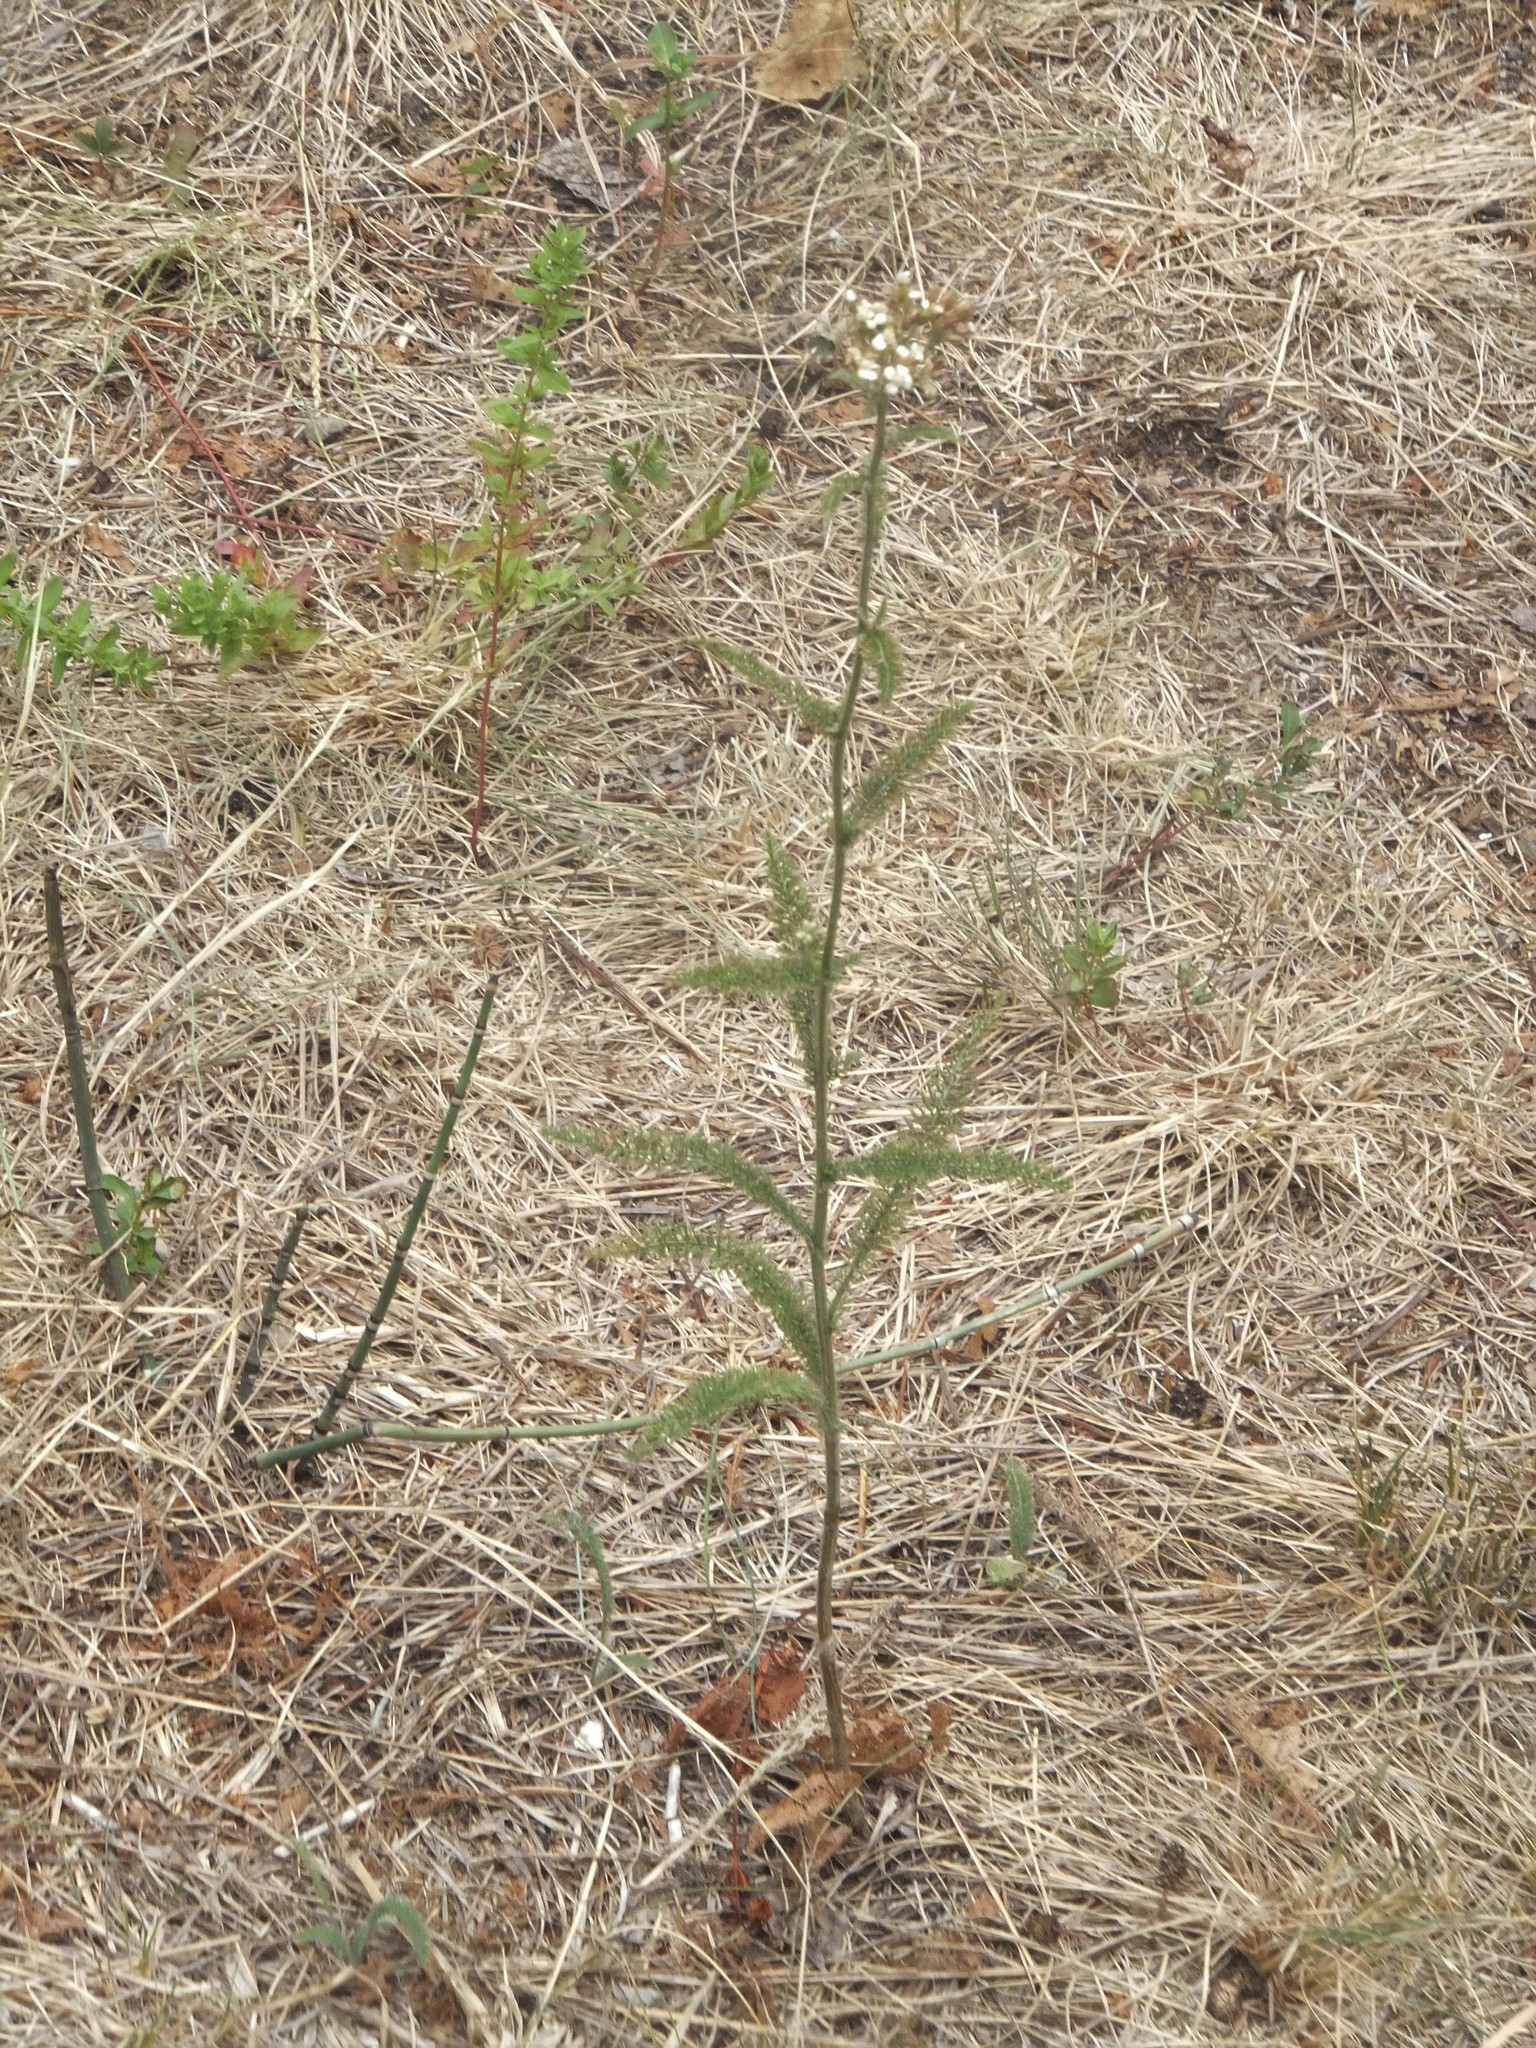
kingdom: Plantae
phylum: Tracheophyta
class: Magnoliopsida
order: Asterales
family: Asteraceae
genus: Achillea
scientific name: Achillea millefolium
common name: Yarrow
